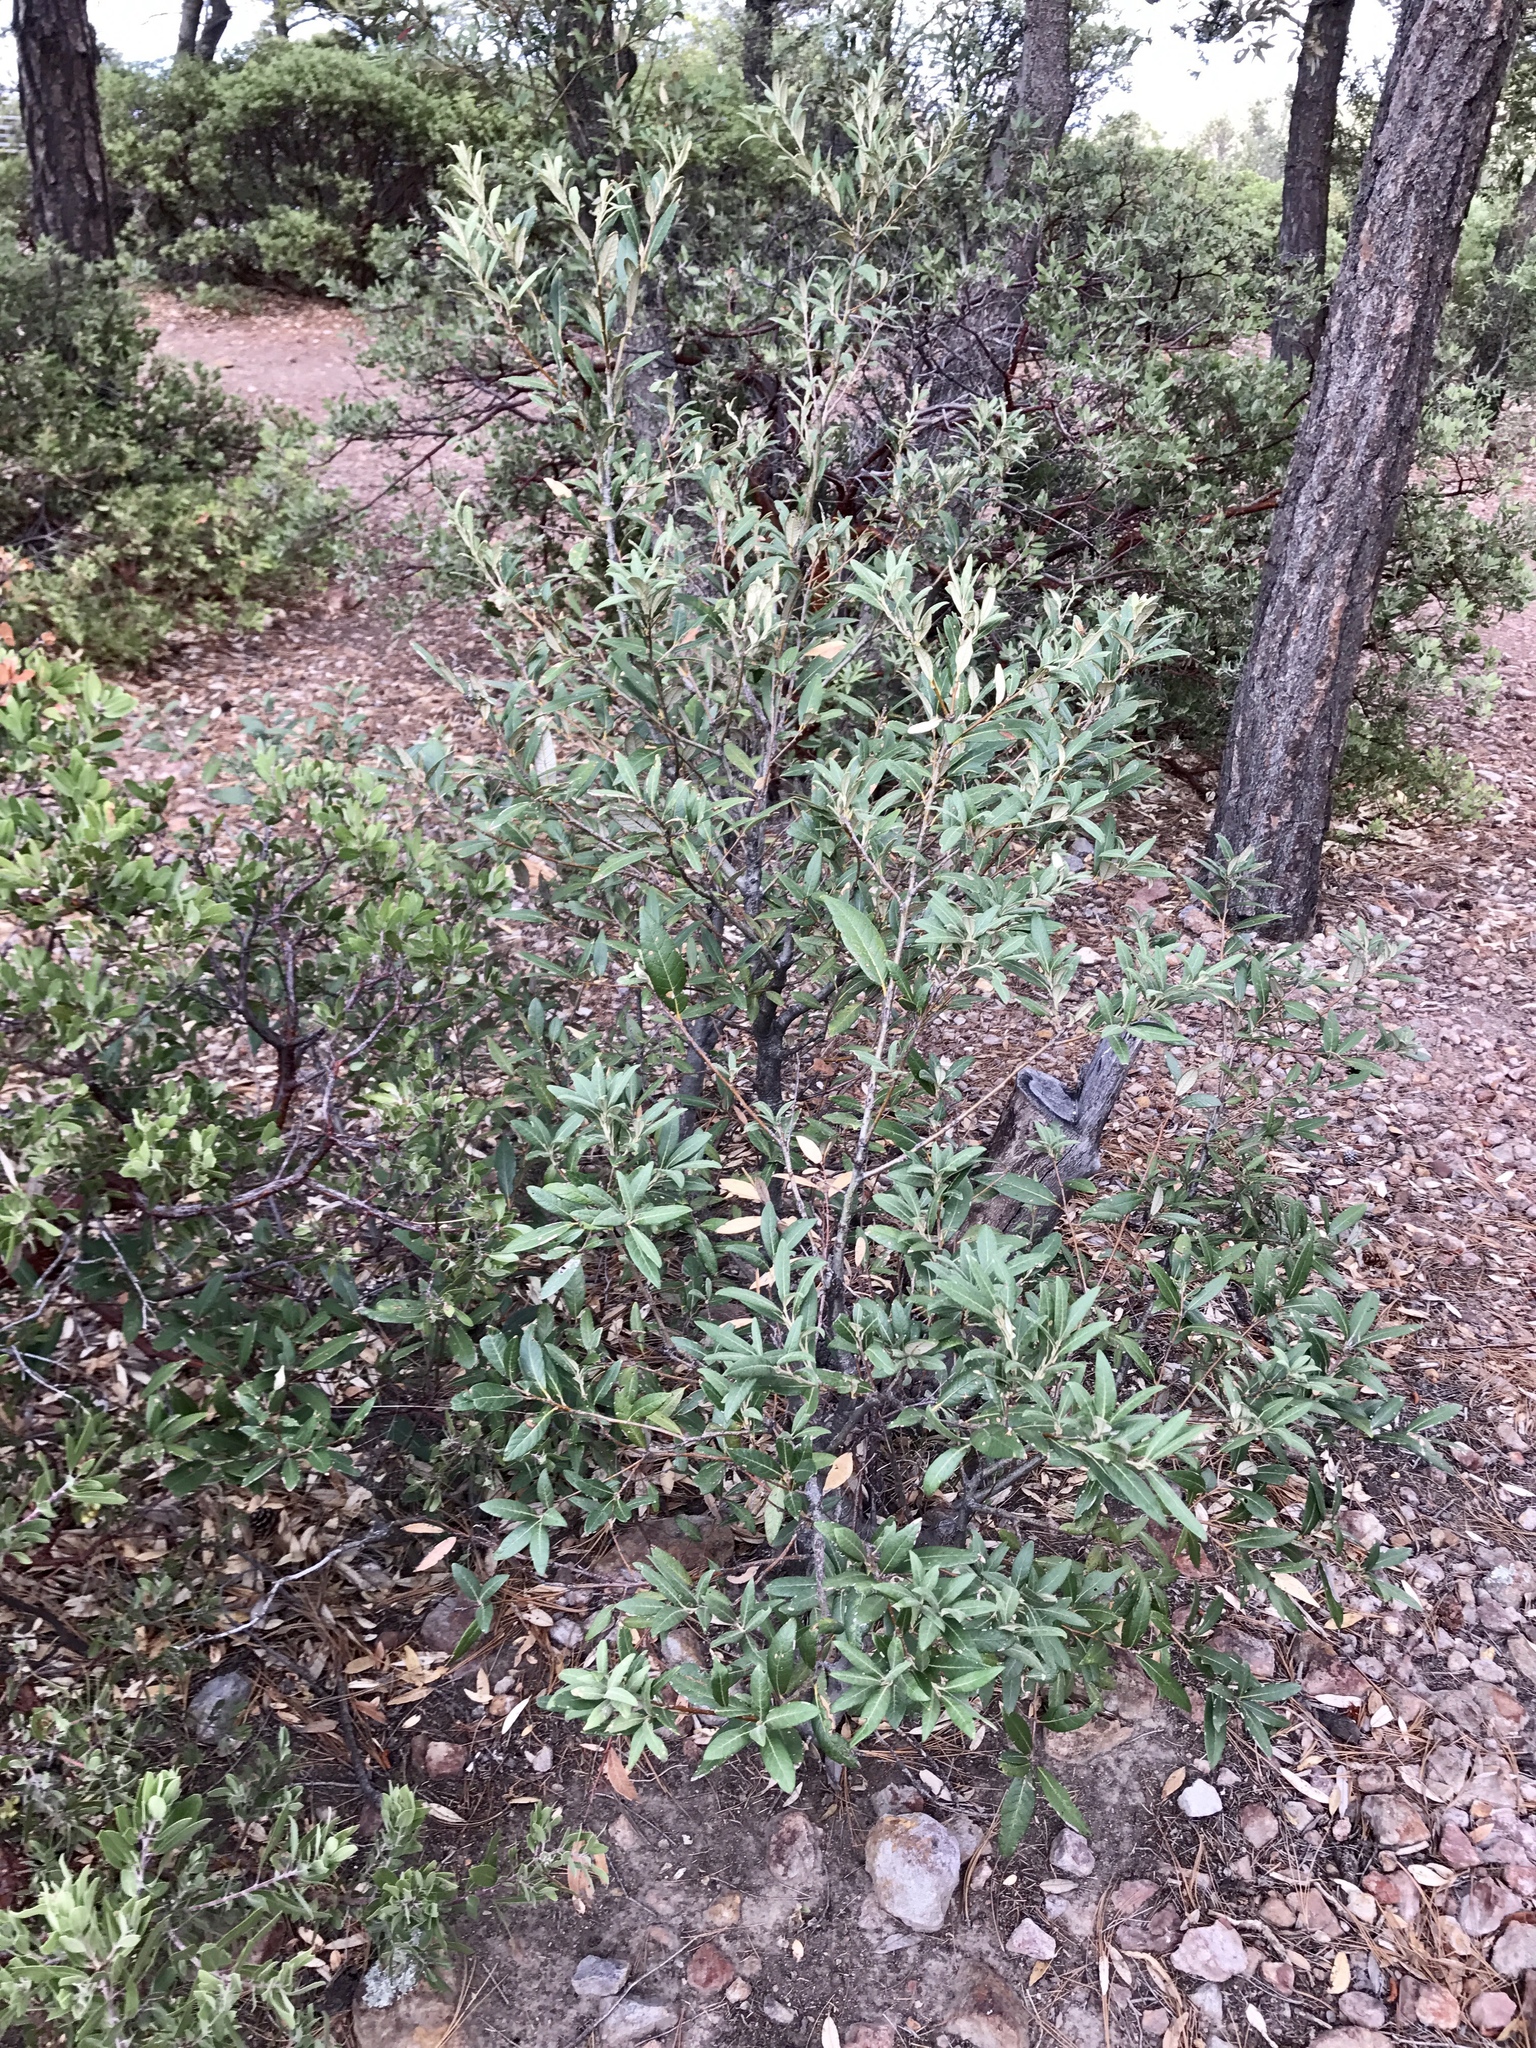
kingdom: Plantae
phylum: Tracheophyta
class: Magnoliopsida
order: Fagales
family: Fagaceae
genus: Quercus
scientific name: Quercus hypoleucoides
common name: Silverleaf oak
